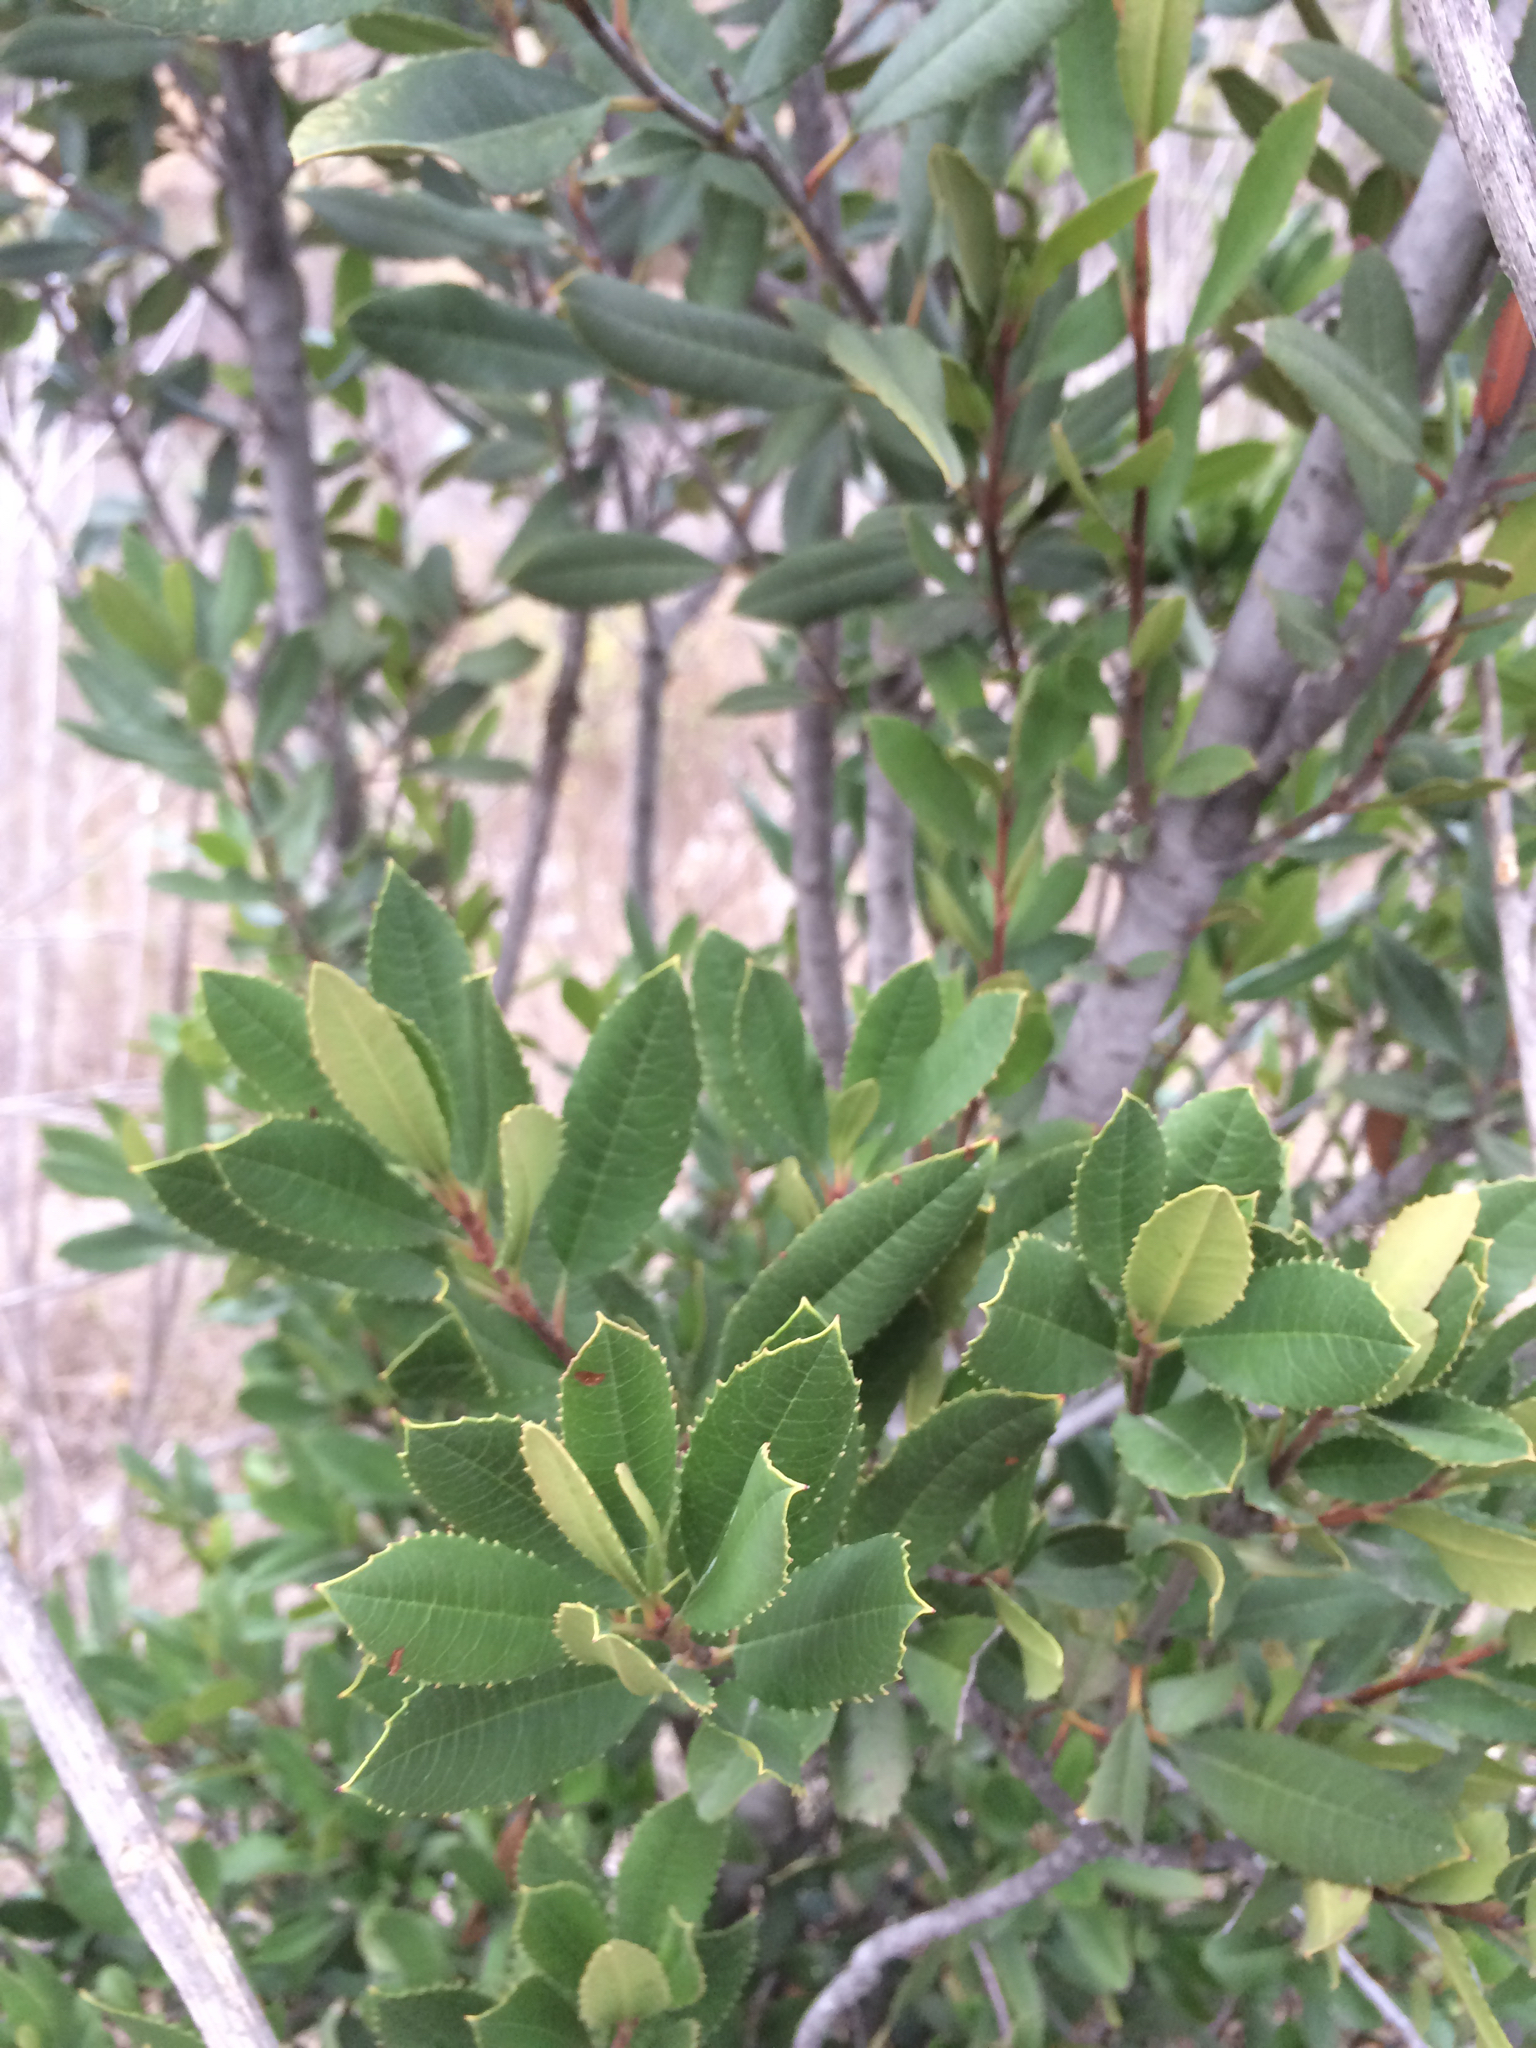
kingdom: Plantae
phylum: Tracheophyta
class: Magnoliopsida
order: Rosales
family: Rosaceae
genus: Heteromeles
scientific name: Heteromeles arbutifolia
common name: California-holly
